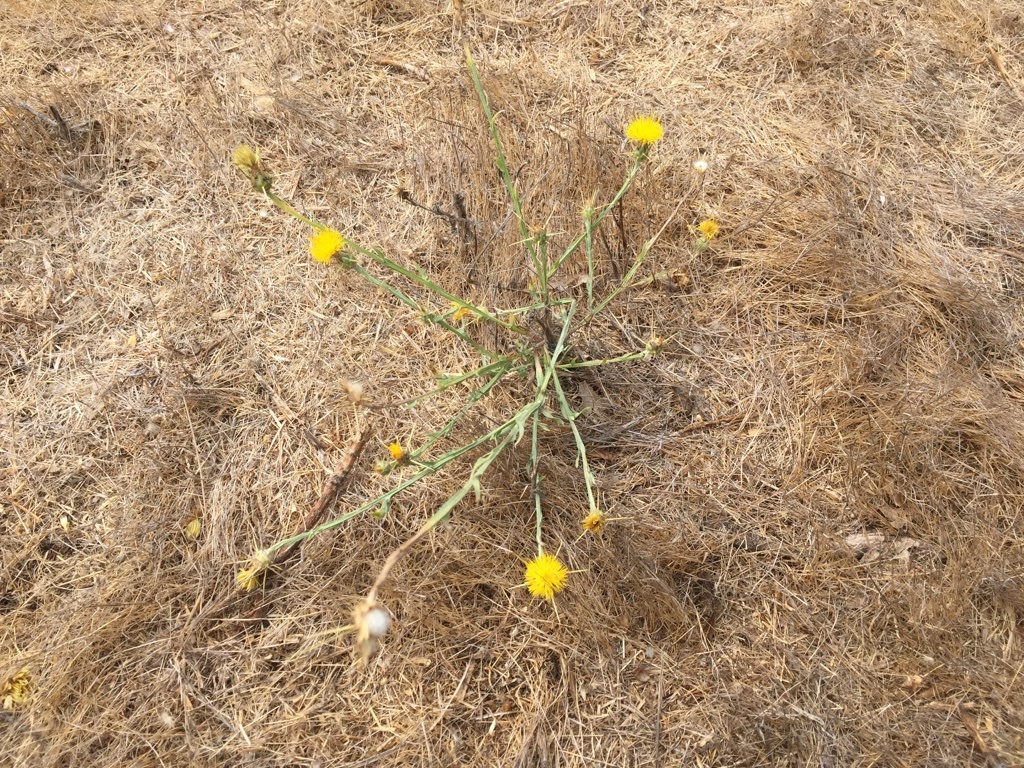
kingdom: Plantae
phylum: Tracheophyta
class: Magnoliopsida
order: Asterales
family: Asteraceae
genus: Centaurea
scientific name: Centaurea solstitialis
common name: Yellow star-thistle
